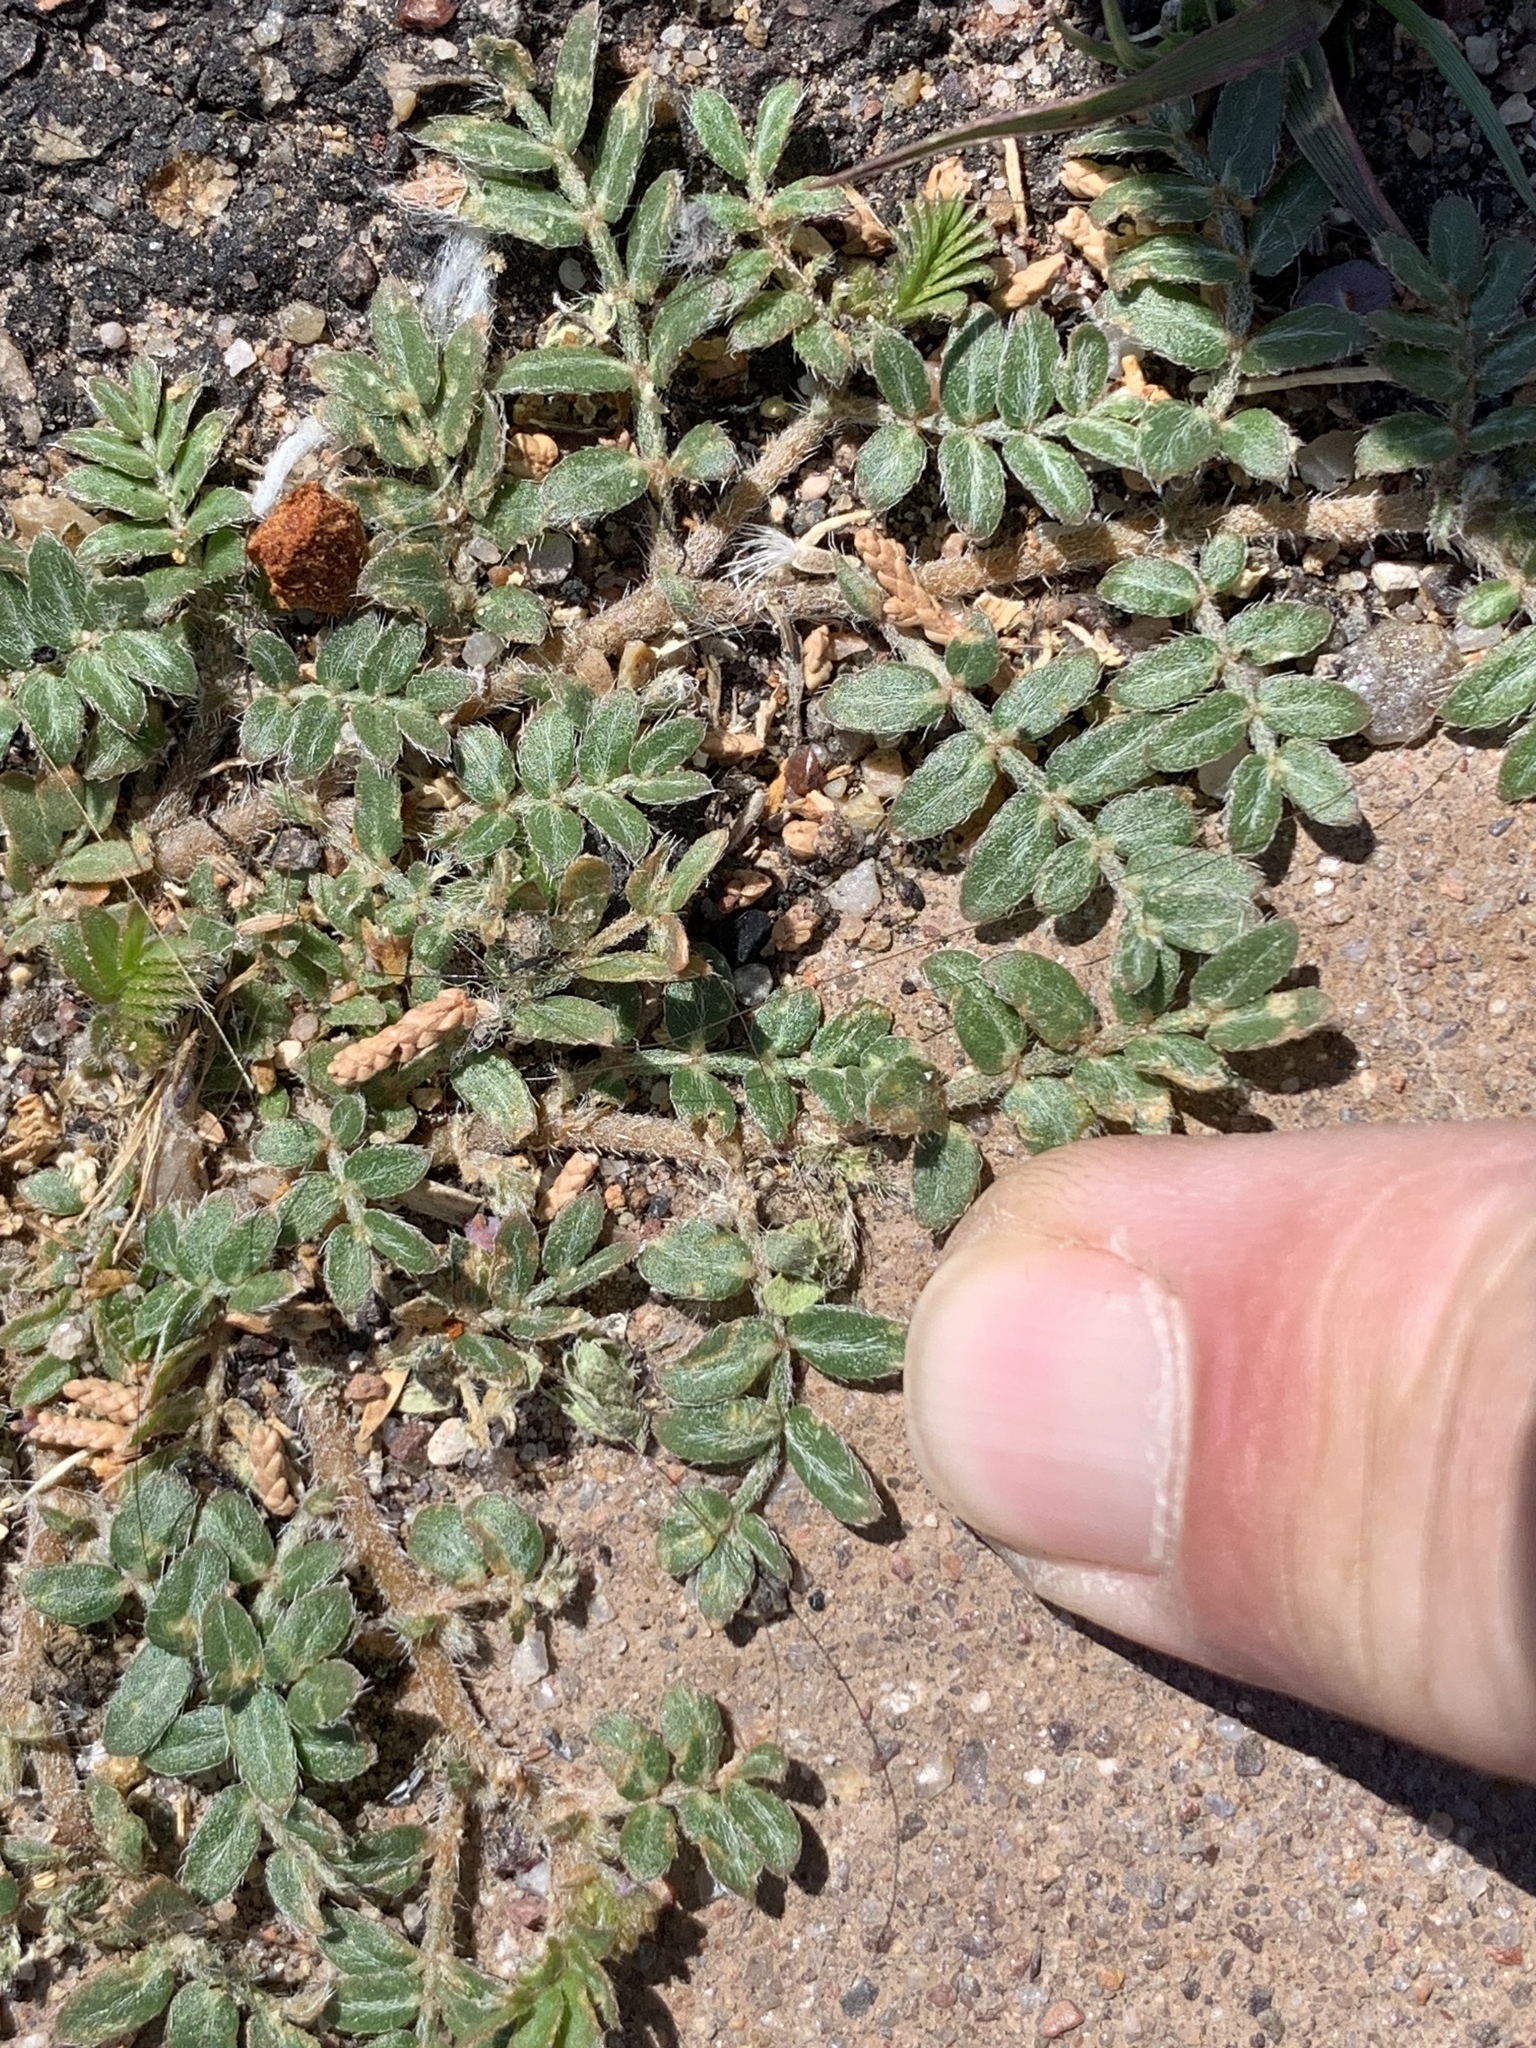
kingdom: Plantae
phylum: Tracheophyta
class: Magnoliopsida
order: Zygophyllales
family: Zygophyllaceae
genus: Tribulus
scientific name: Tribulus terrestris
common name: Puncturevine
